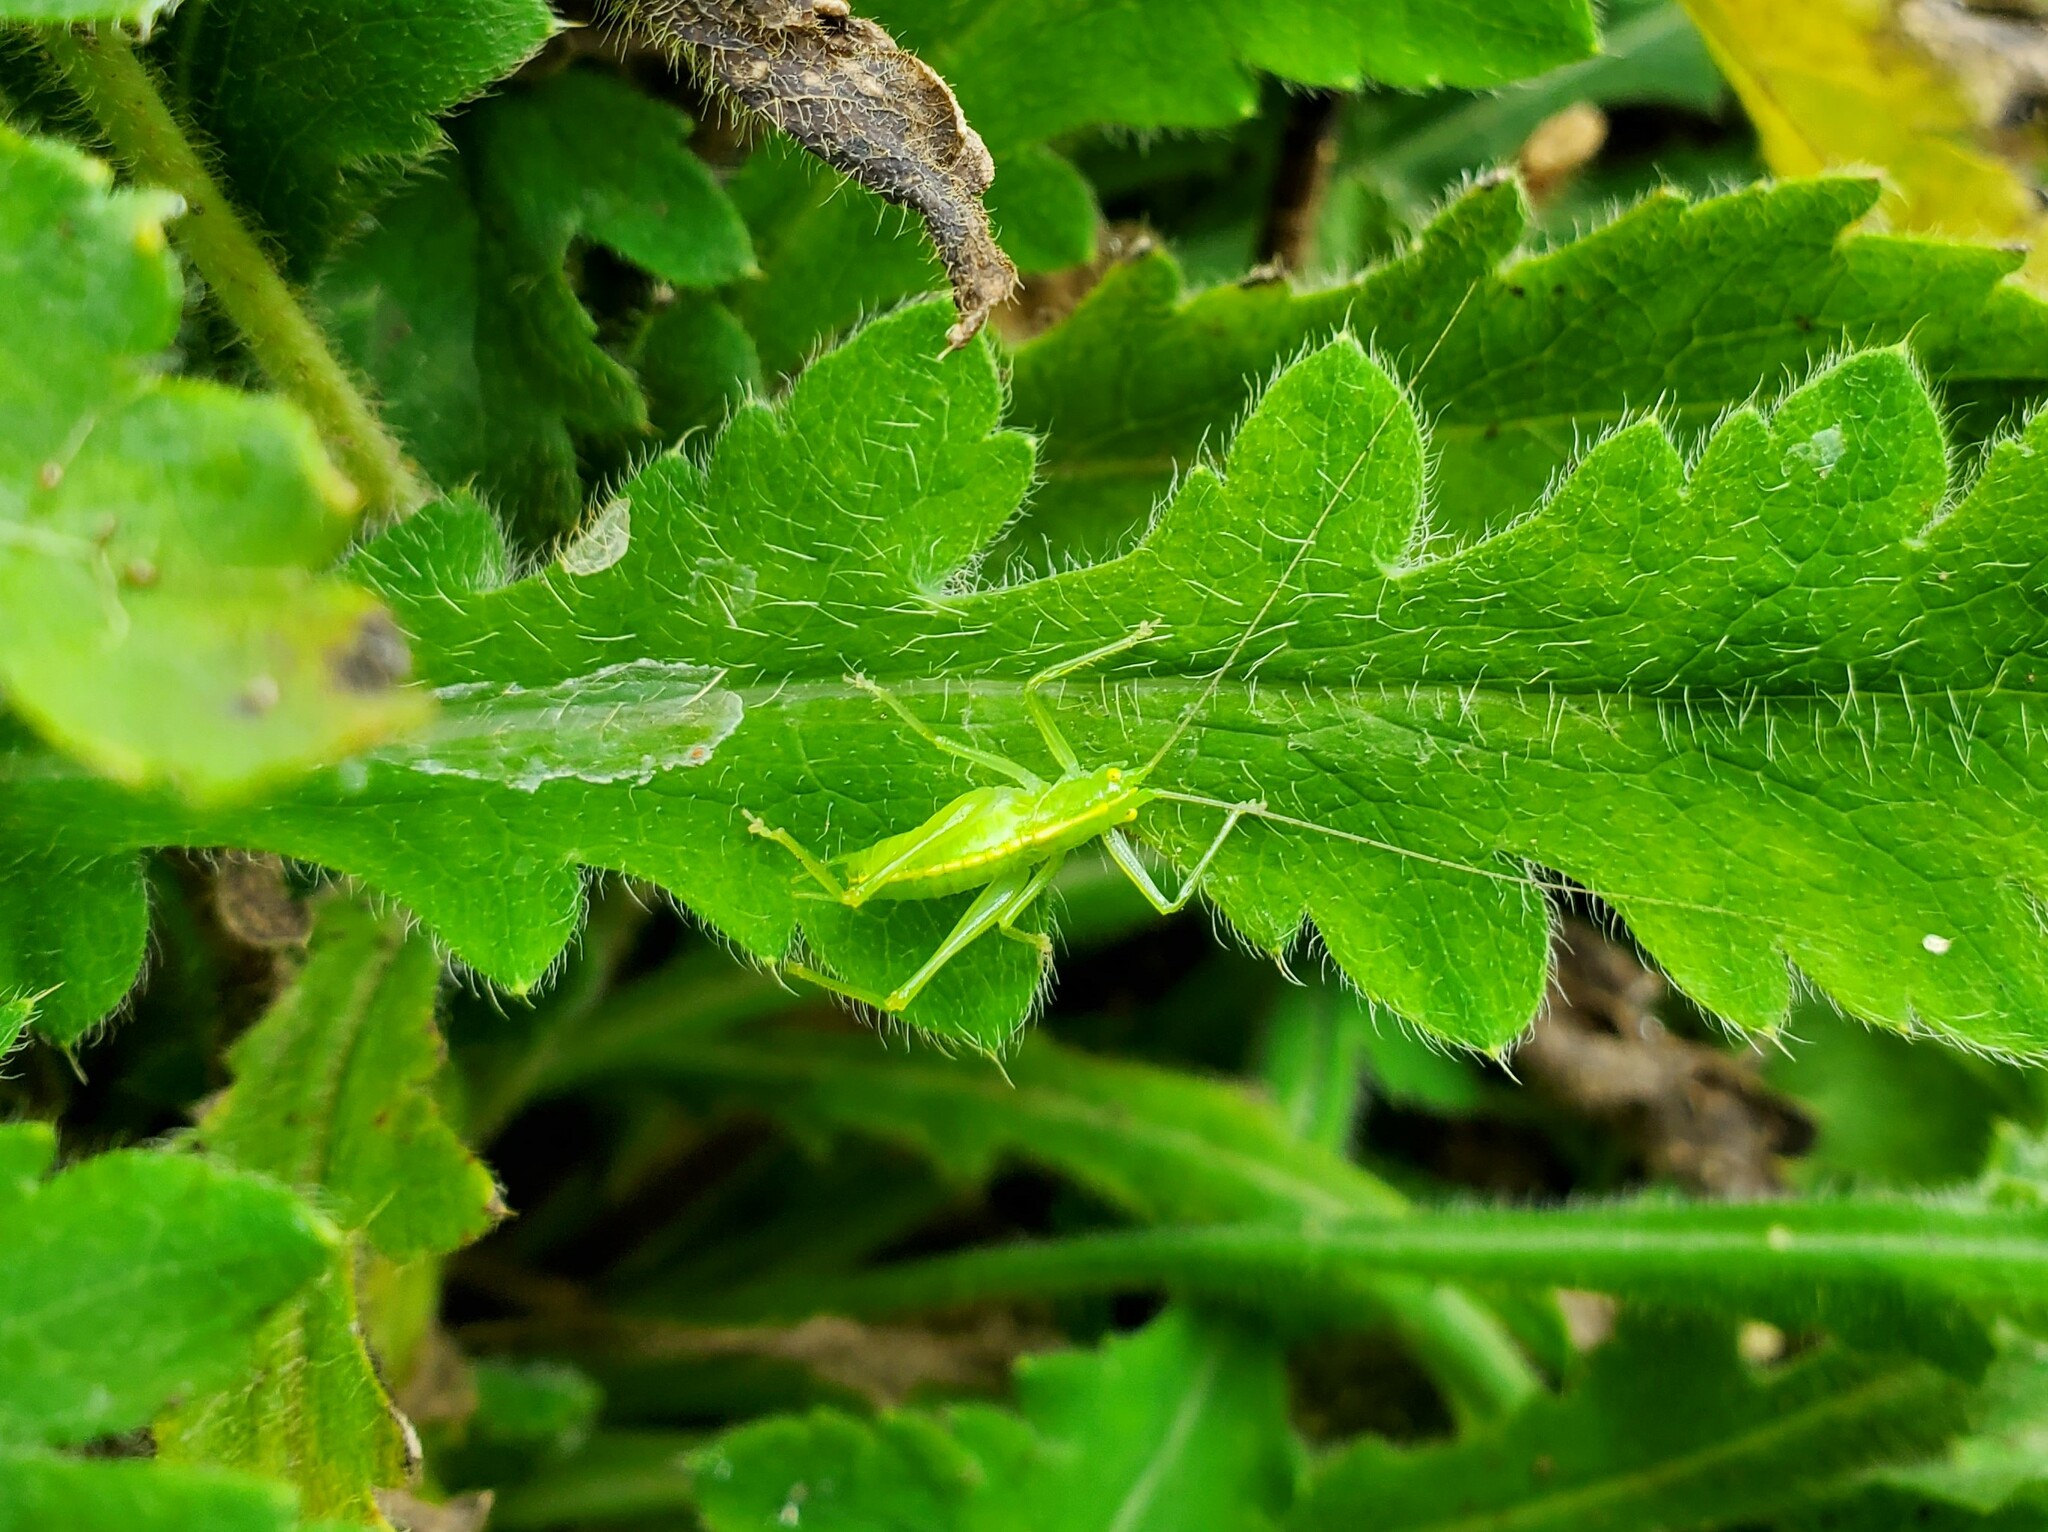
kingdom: Animalia
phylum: Arthropoda
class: Insecta
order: Orthoptera
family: Tettigoniidae
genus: Meconema
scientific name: Meconema meridionale
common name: Southern oak bush-cricket
